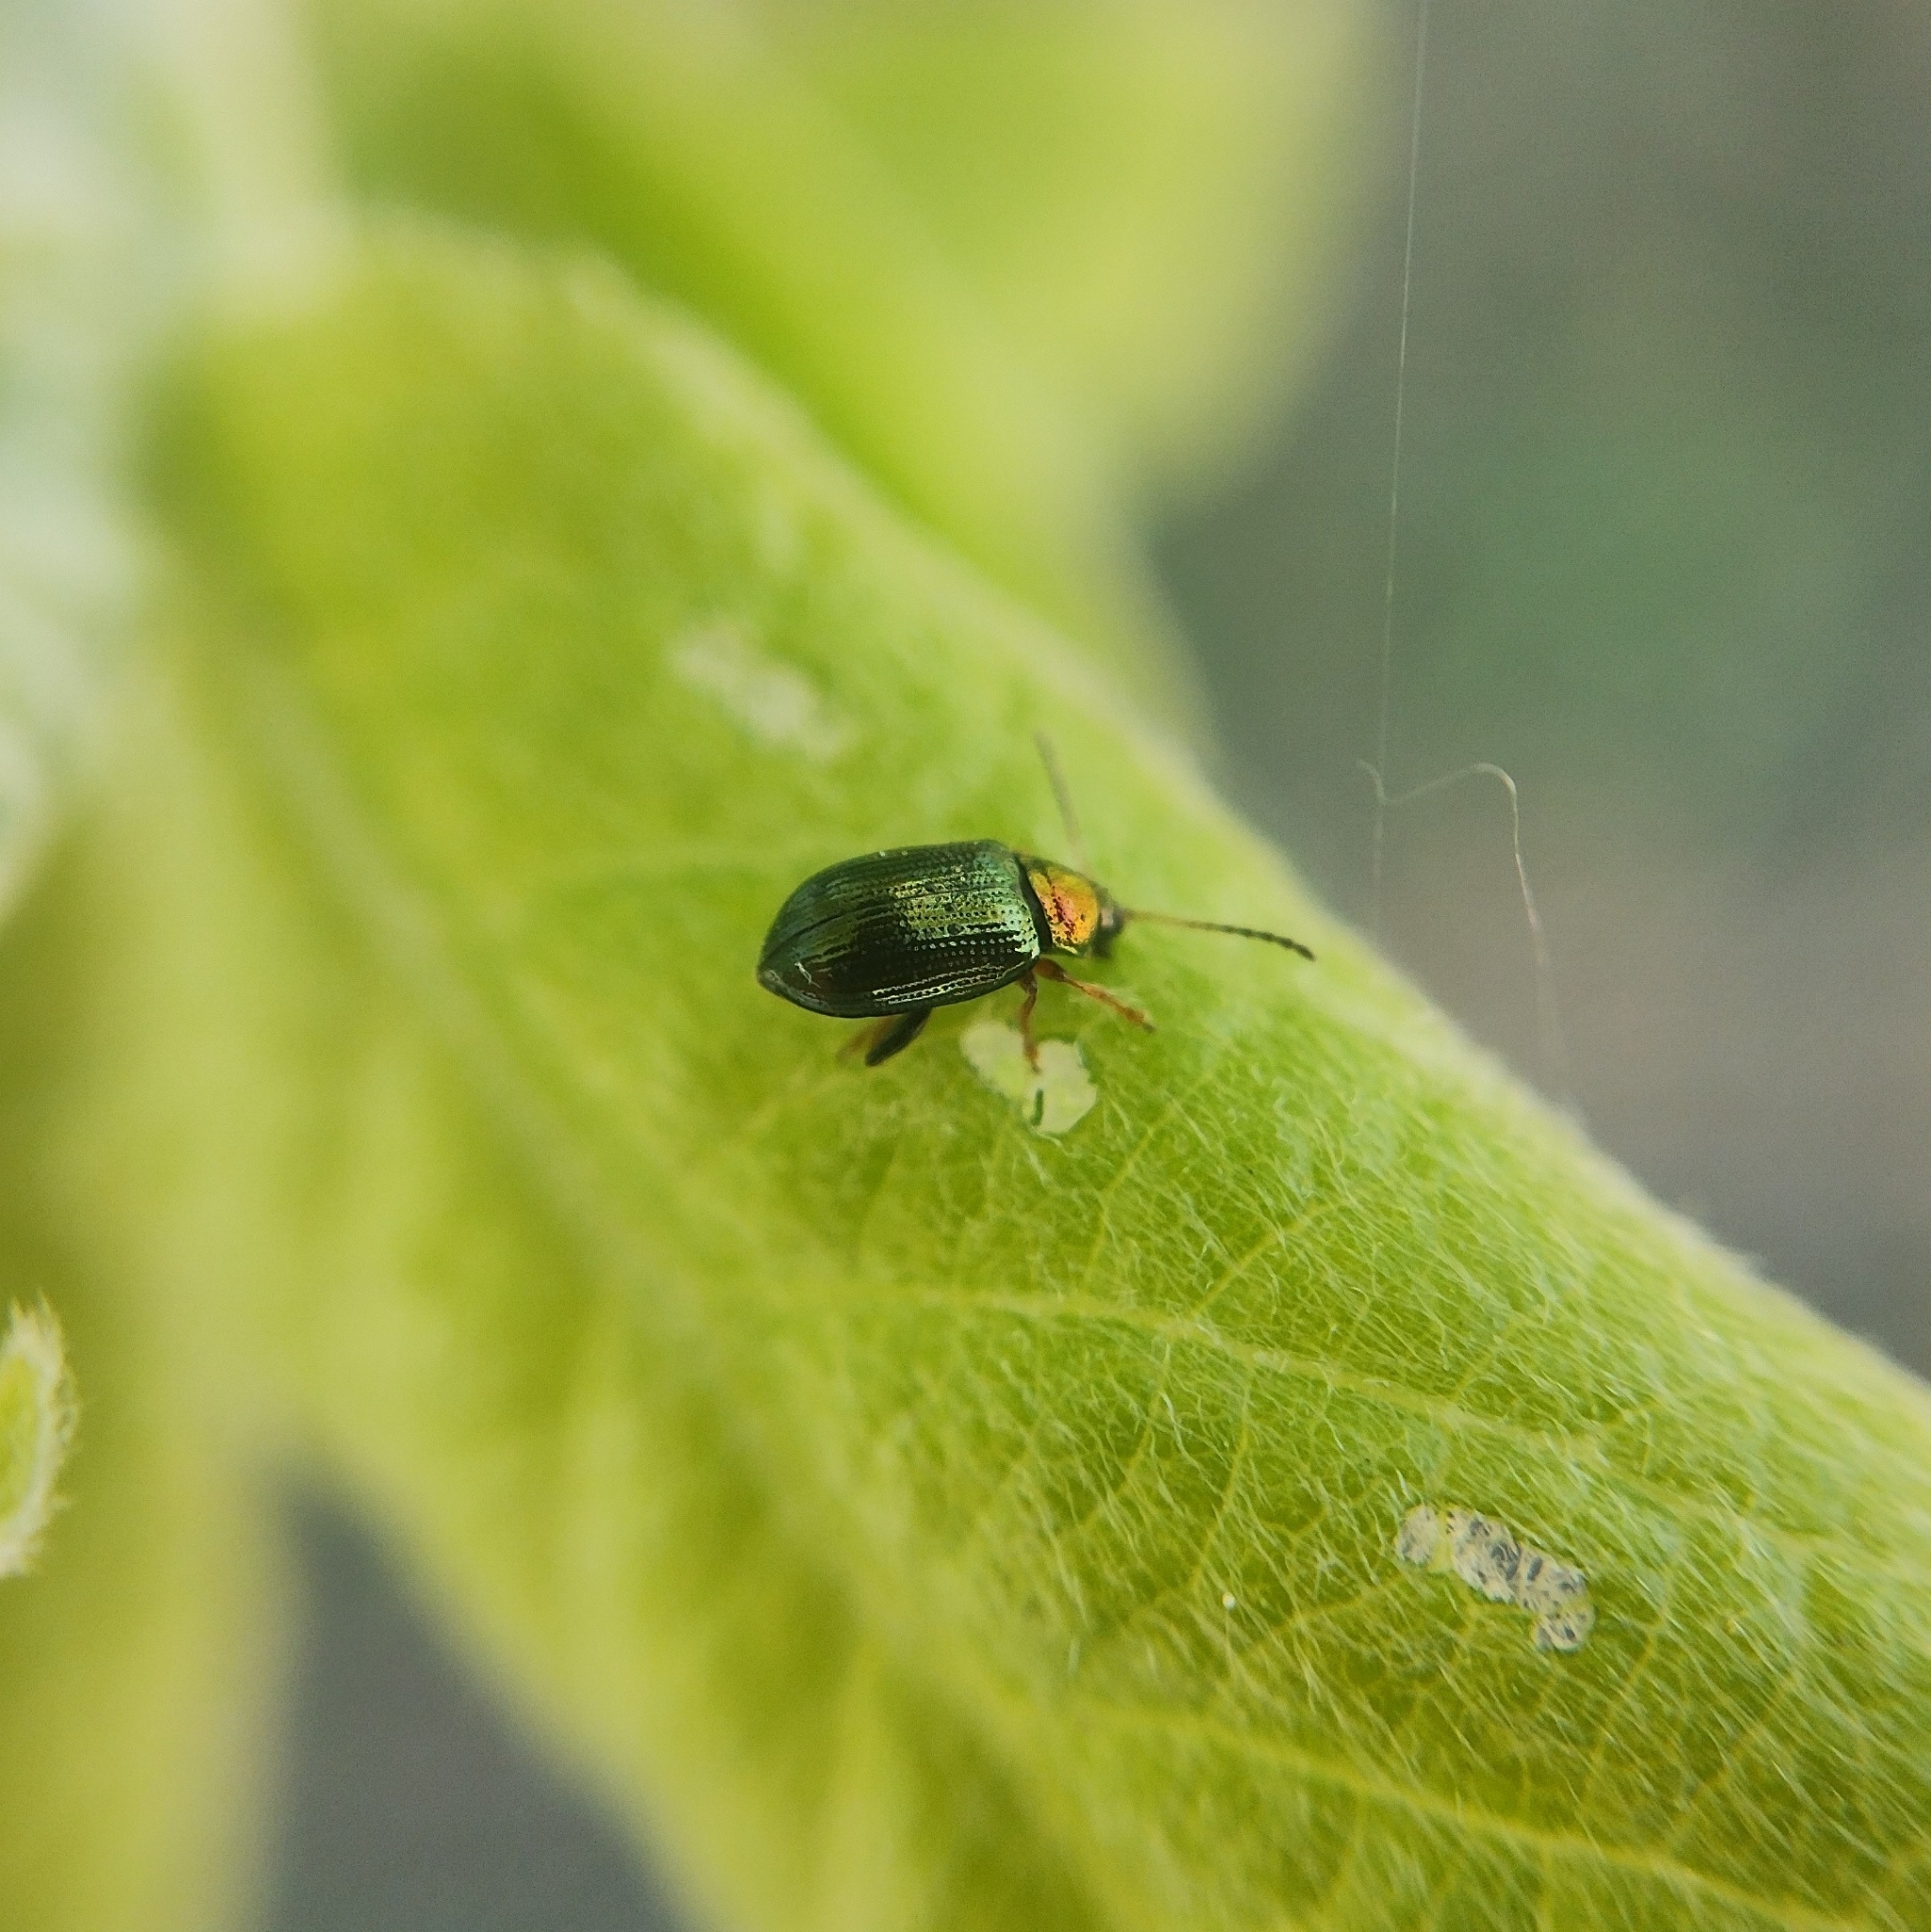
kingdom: Animalia
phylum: Arthropoda
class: Insecta
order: Coleoptera
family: Chrysomelidae
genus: Crepidodera
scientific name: Crepidodera aurata
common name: Willow flea beetle
